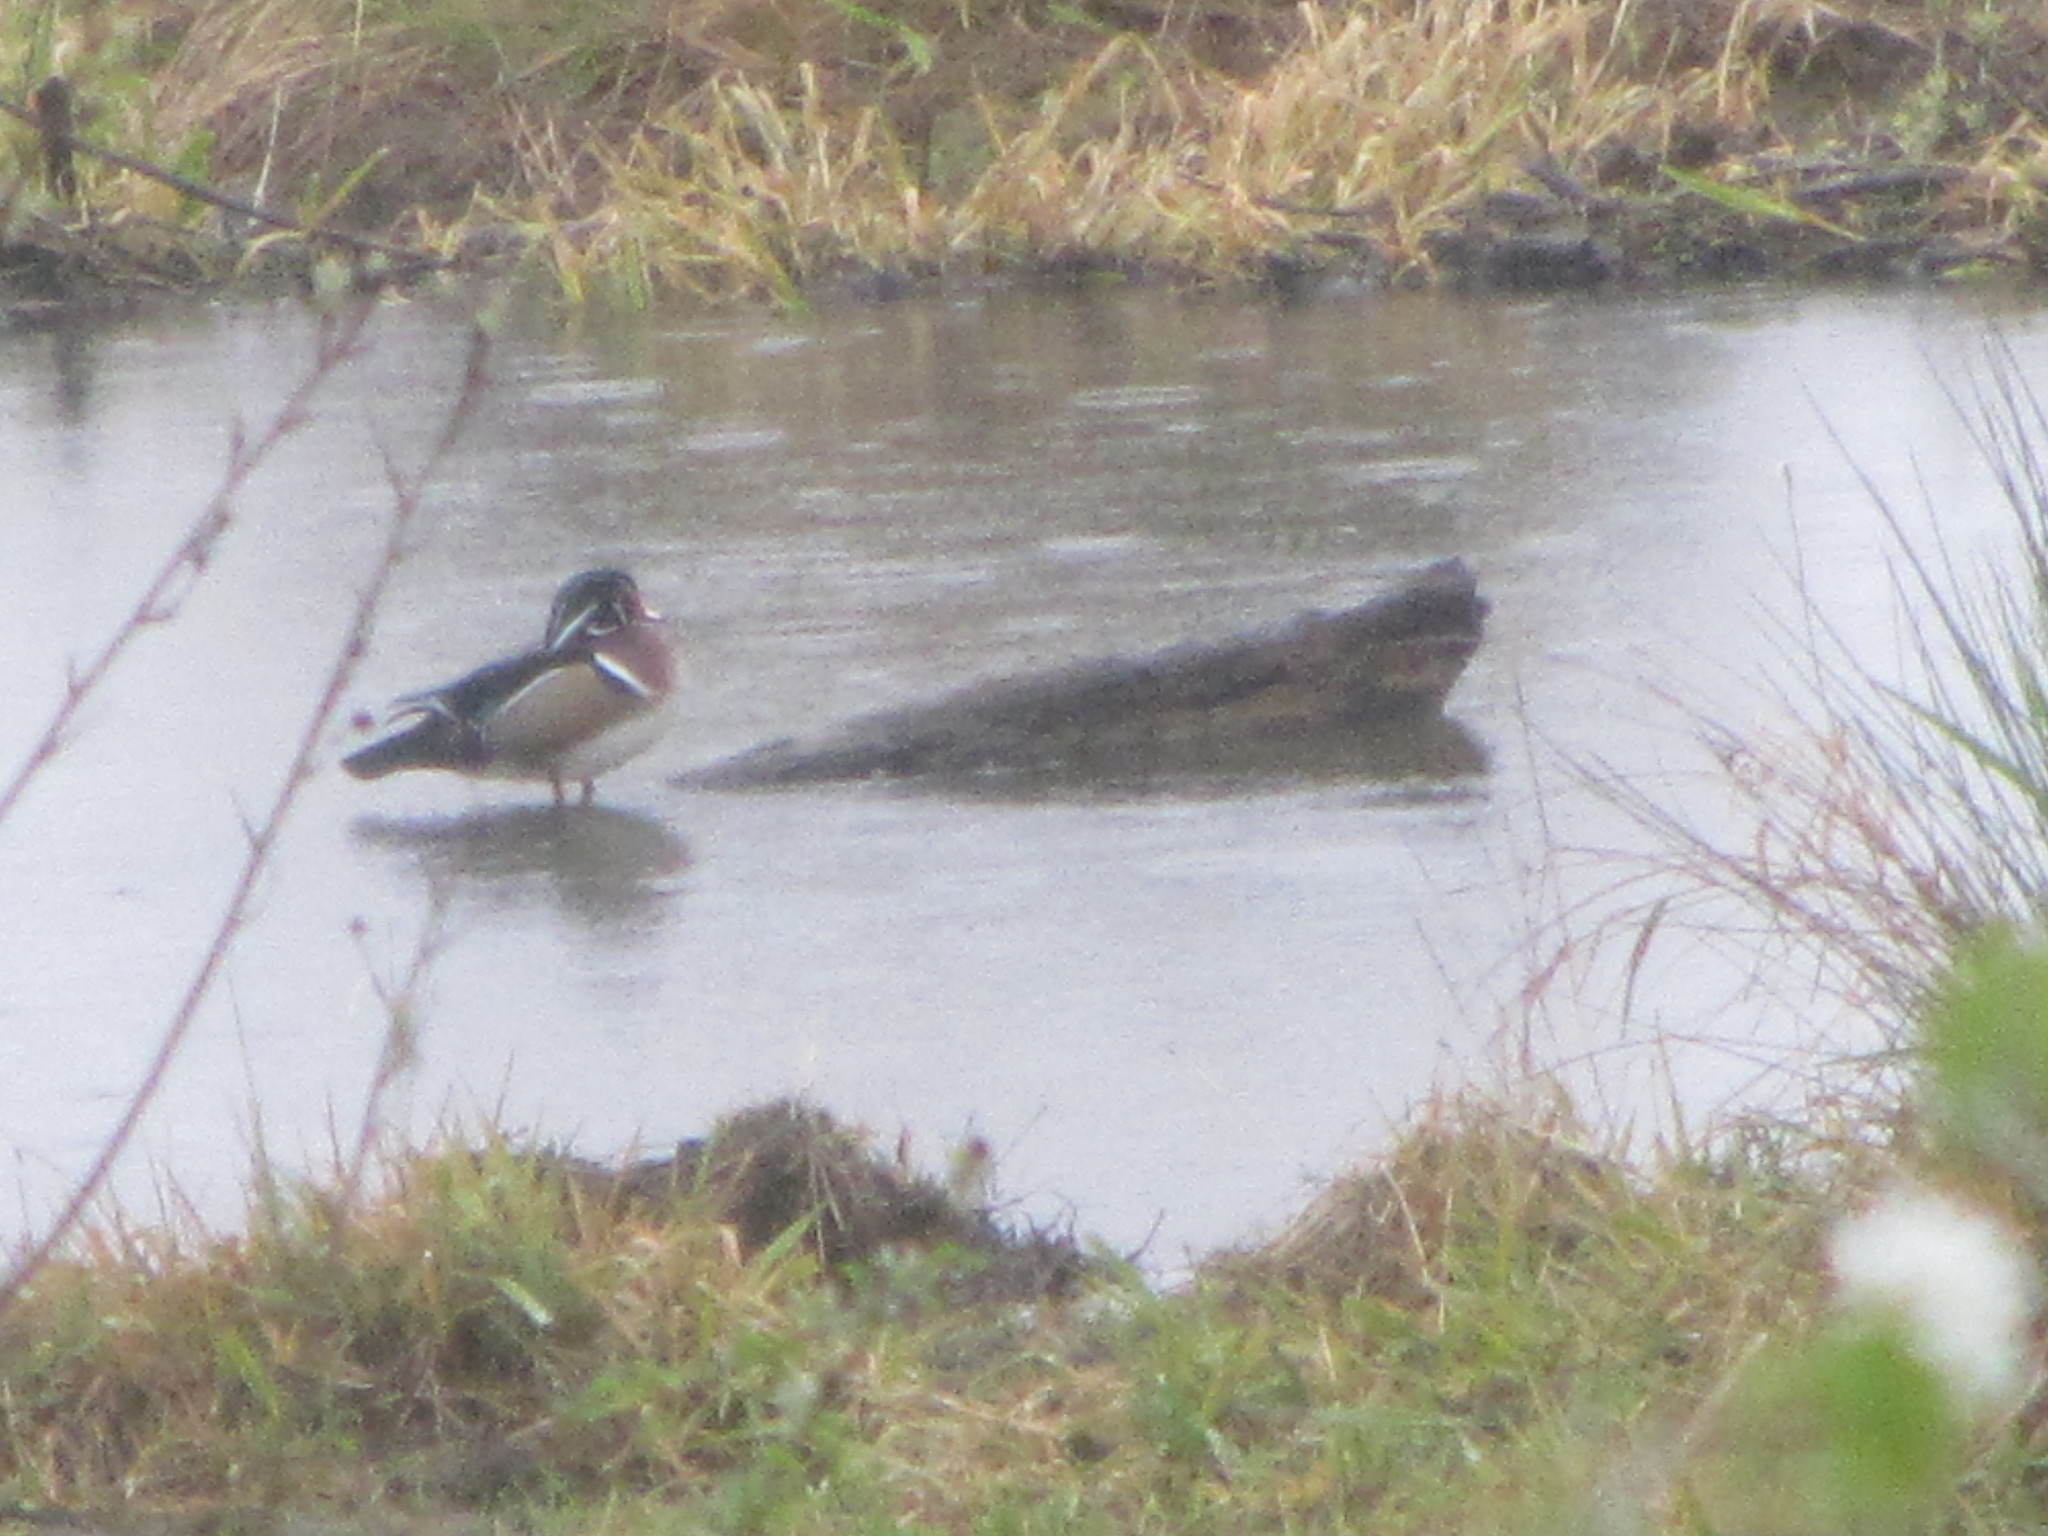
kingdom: Animalia
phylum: Chordata
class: Aves
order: Anseriformes
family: Anatidae
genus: Aix
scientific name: Aix sponsa
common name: Wood duck
